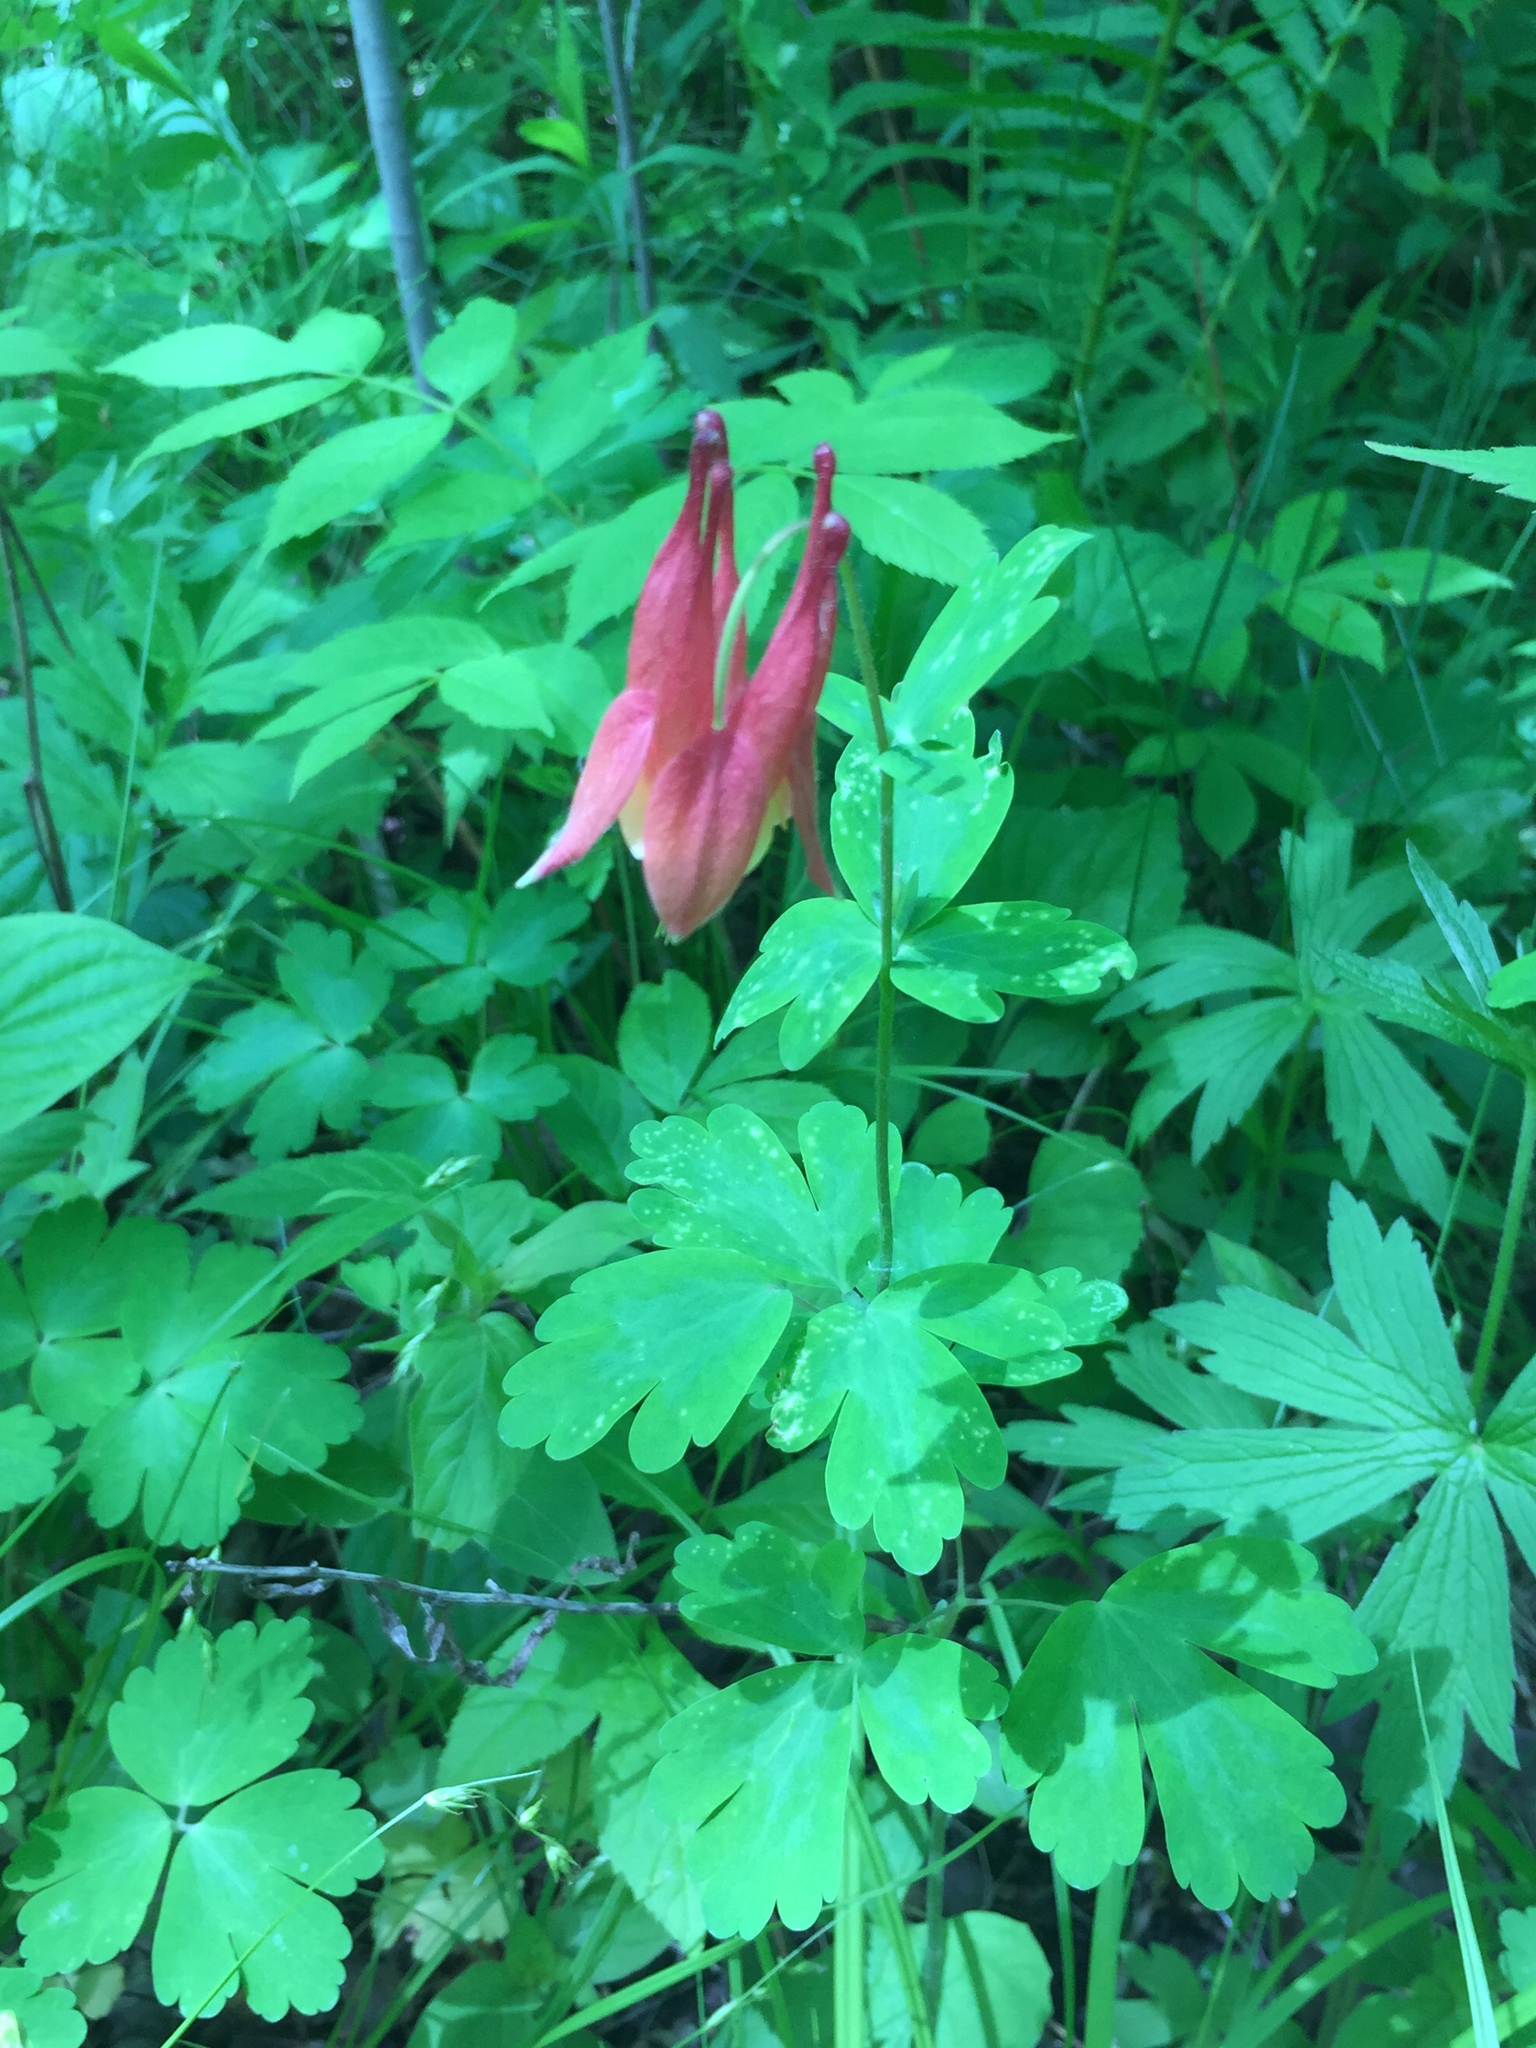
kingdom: Plantae
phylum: Tracheophyta
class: Magnoliopsida
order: Ranunculales
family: Ranunculaceae
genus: Aquilegia
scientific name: Aquilegia canadensis
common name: American columbine
